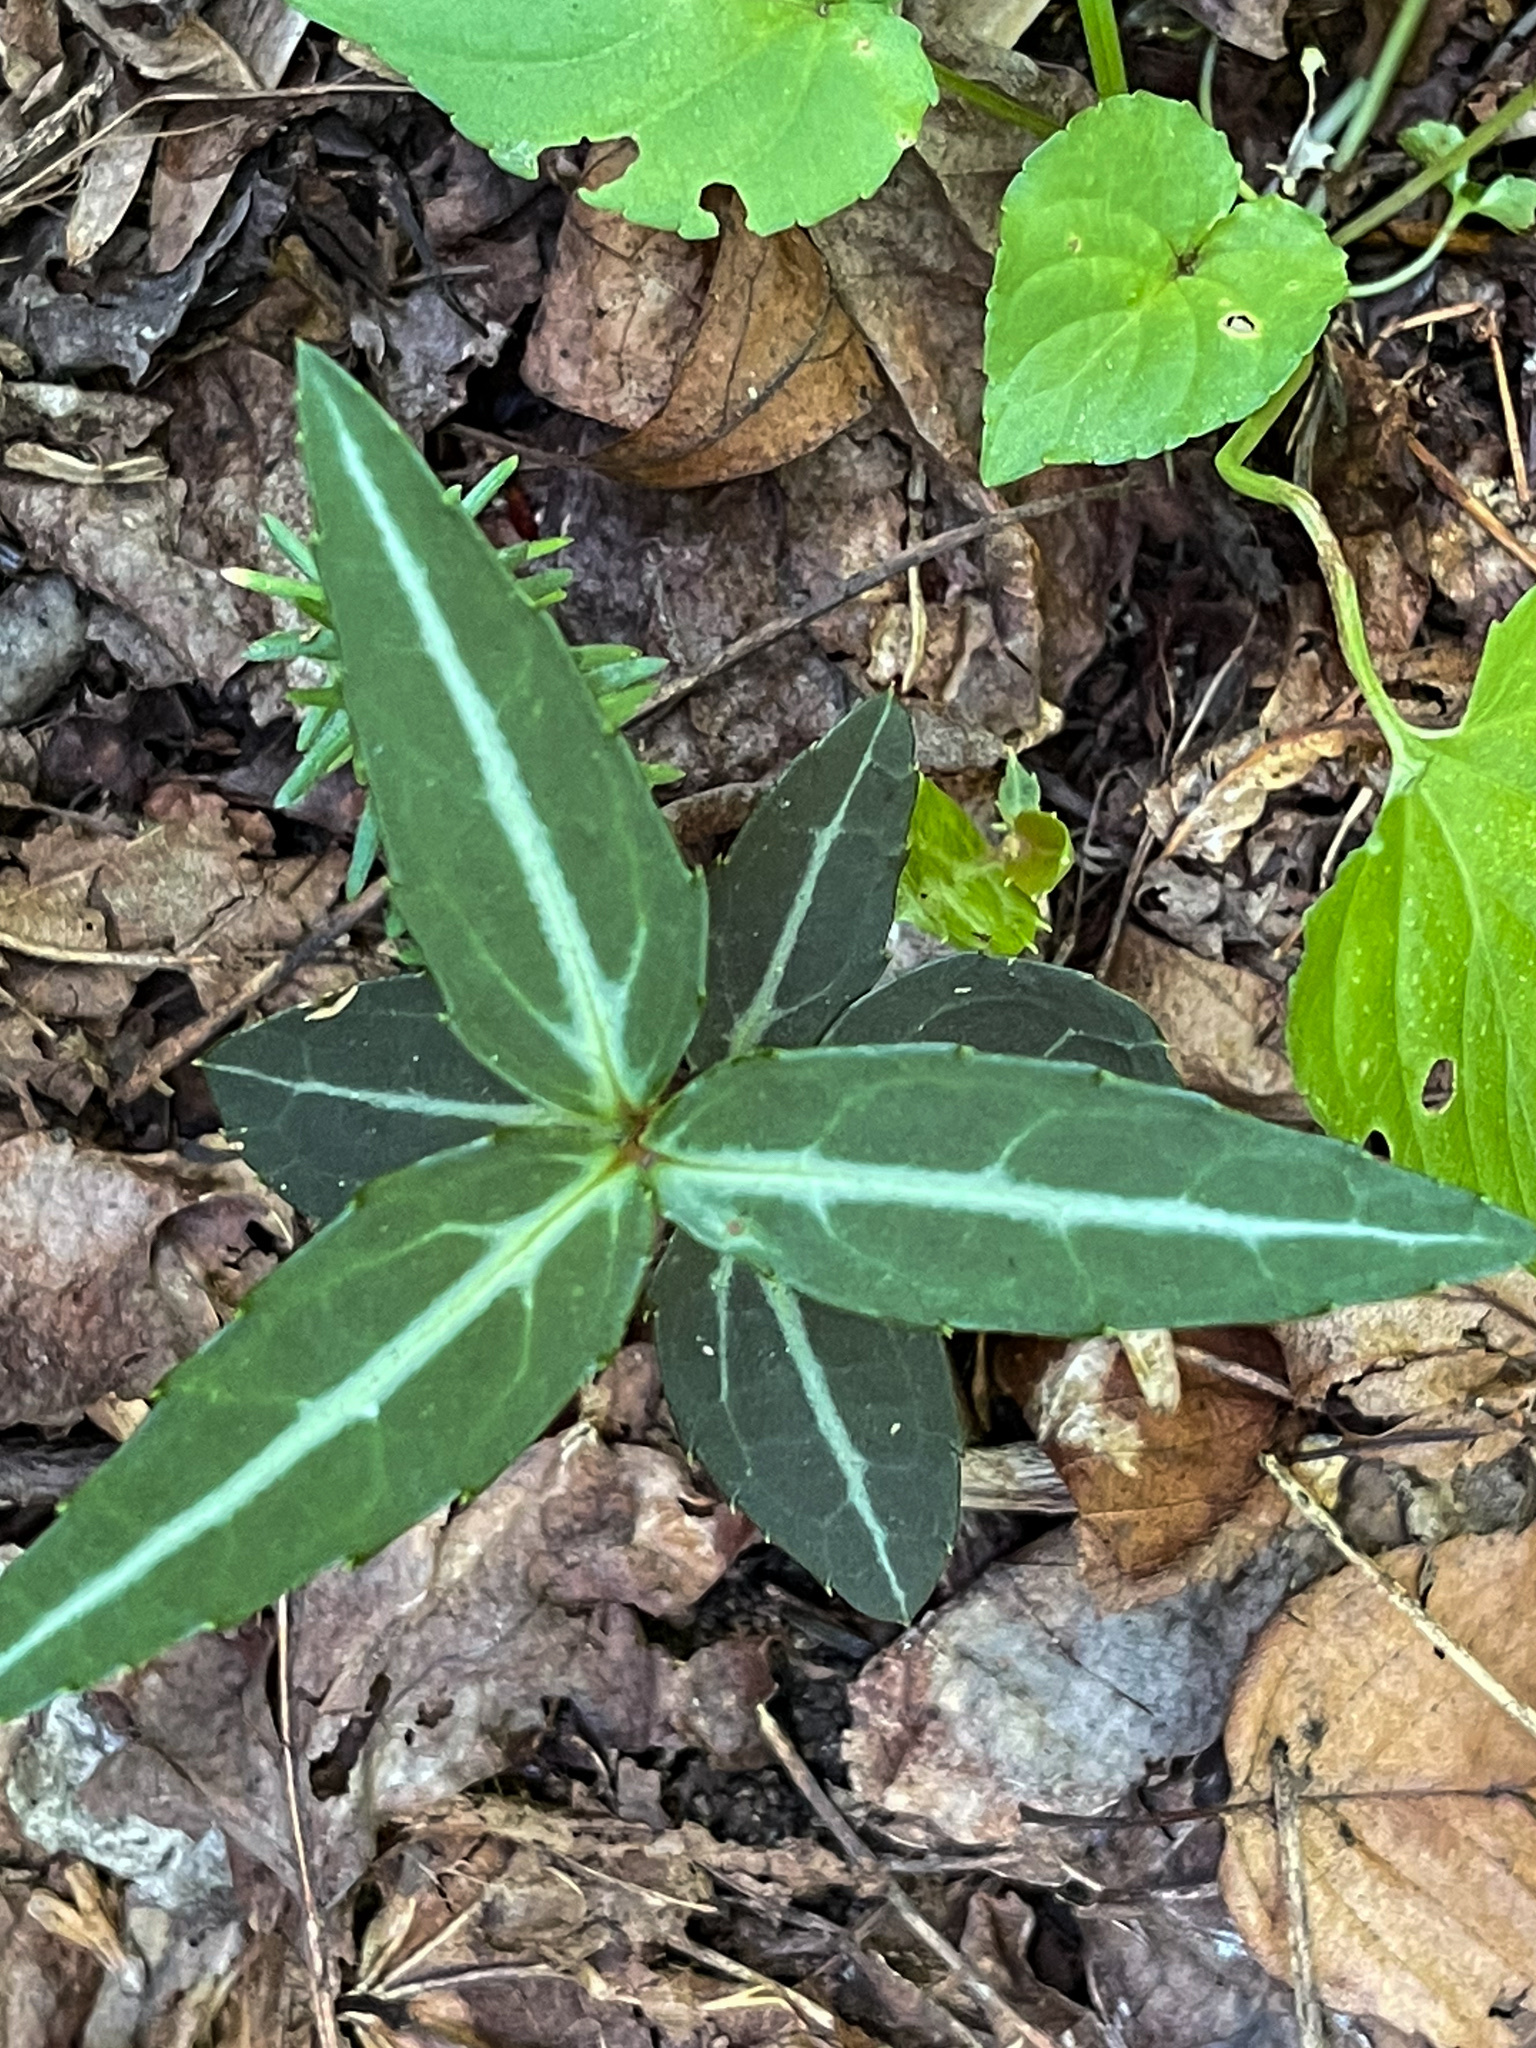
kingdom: Plantae
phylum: Tracheophyta
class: Magnoliopsida
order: Ericales
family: Ericaceae
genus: Chimaphila
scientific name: Chimaphila maculata
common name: Spotted pipsissewa
